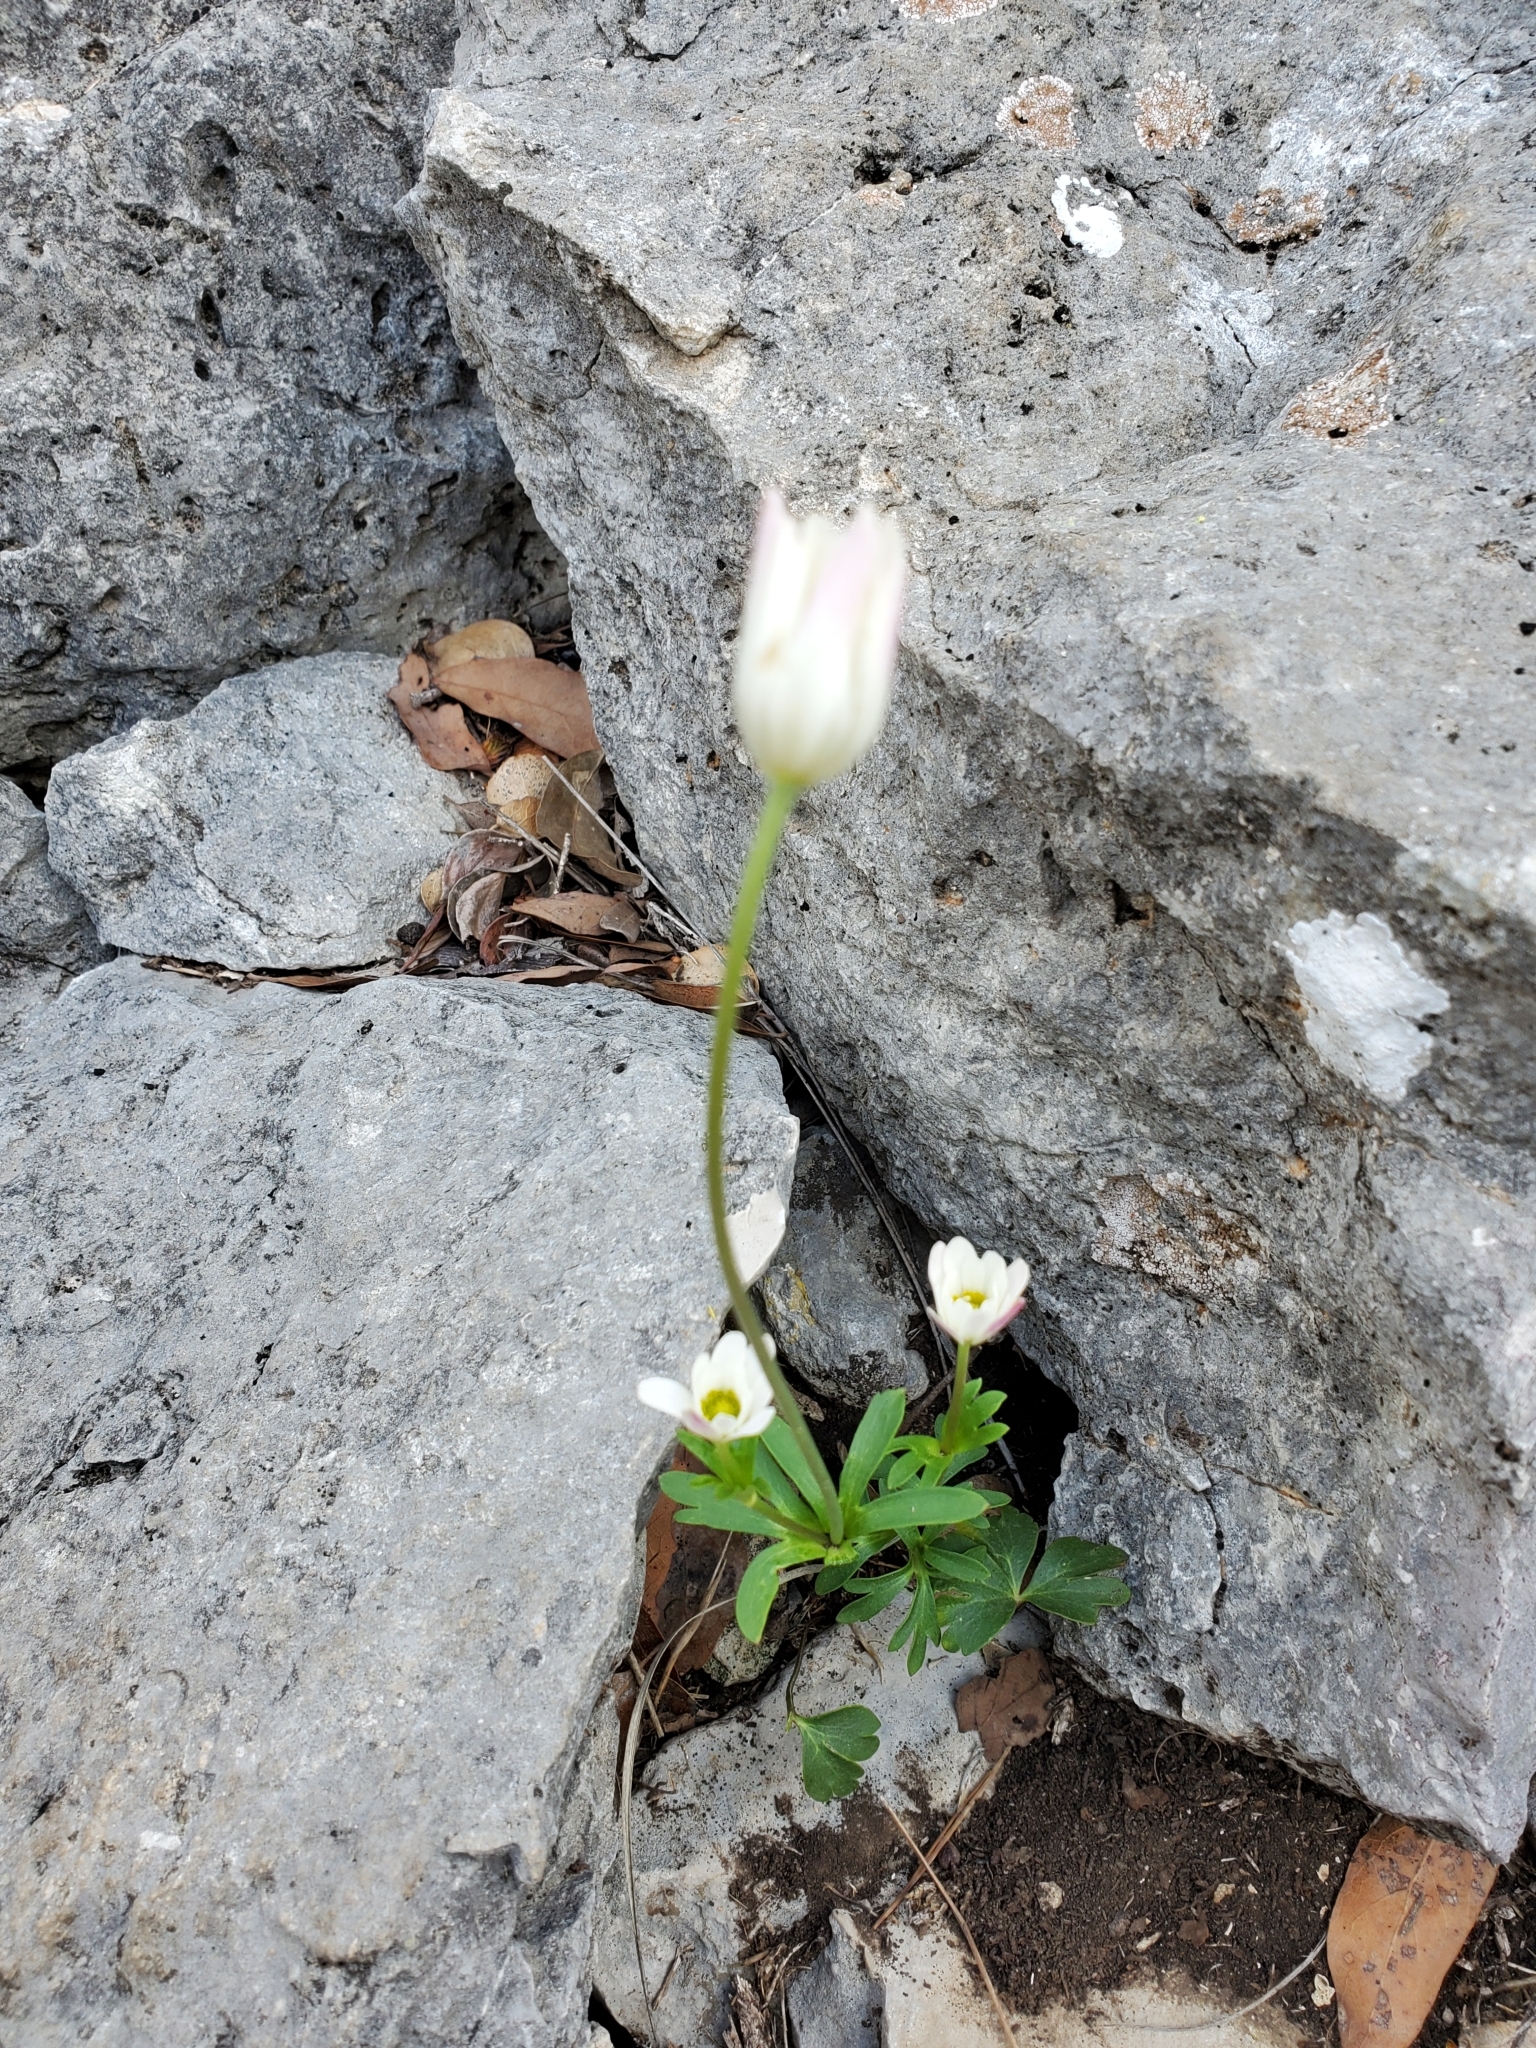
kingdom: Plantae
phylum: Tracheophyta
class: Magnoliopsida
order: Ranunculales
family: Ranunculaceae
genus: Anemone
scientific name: Anemone edwardsiana
